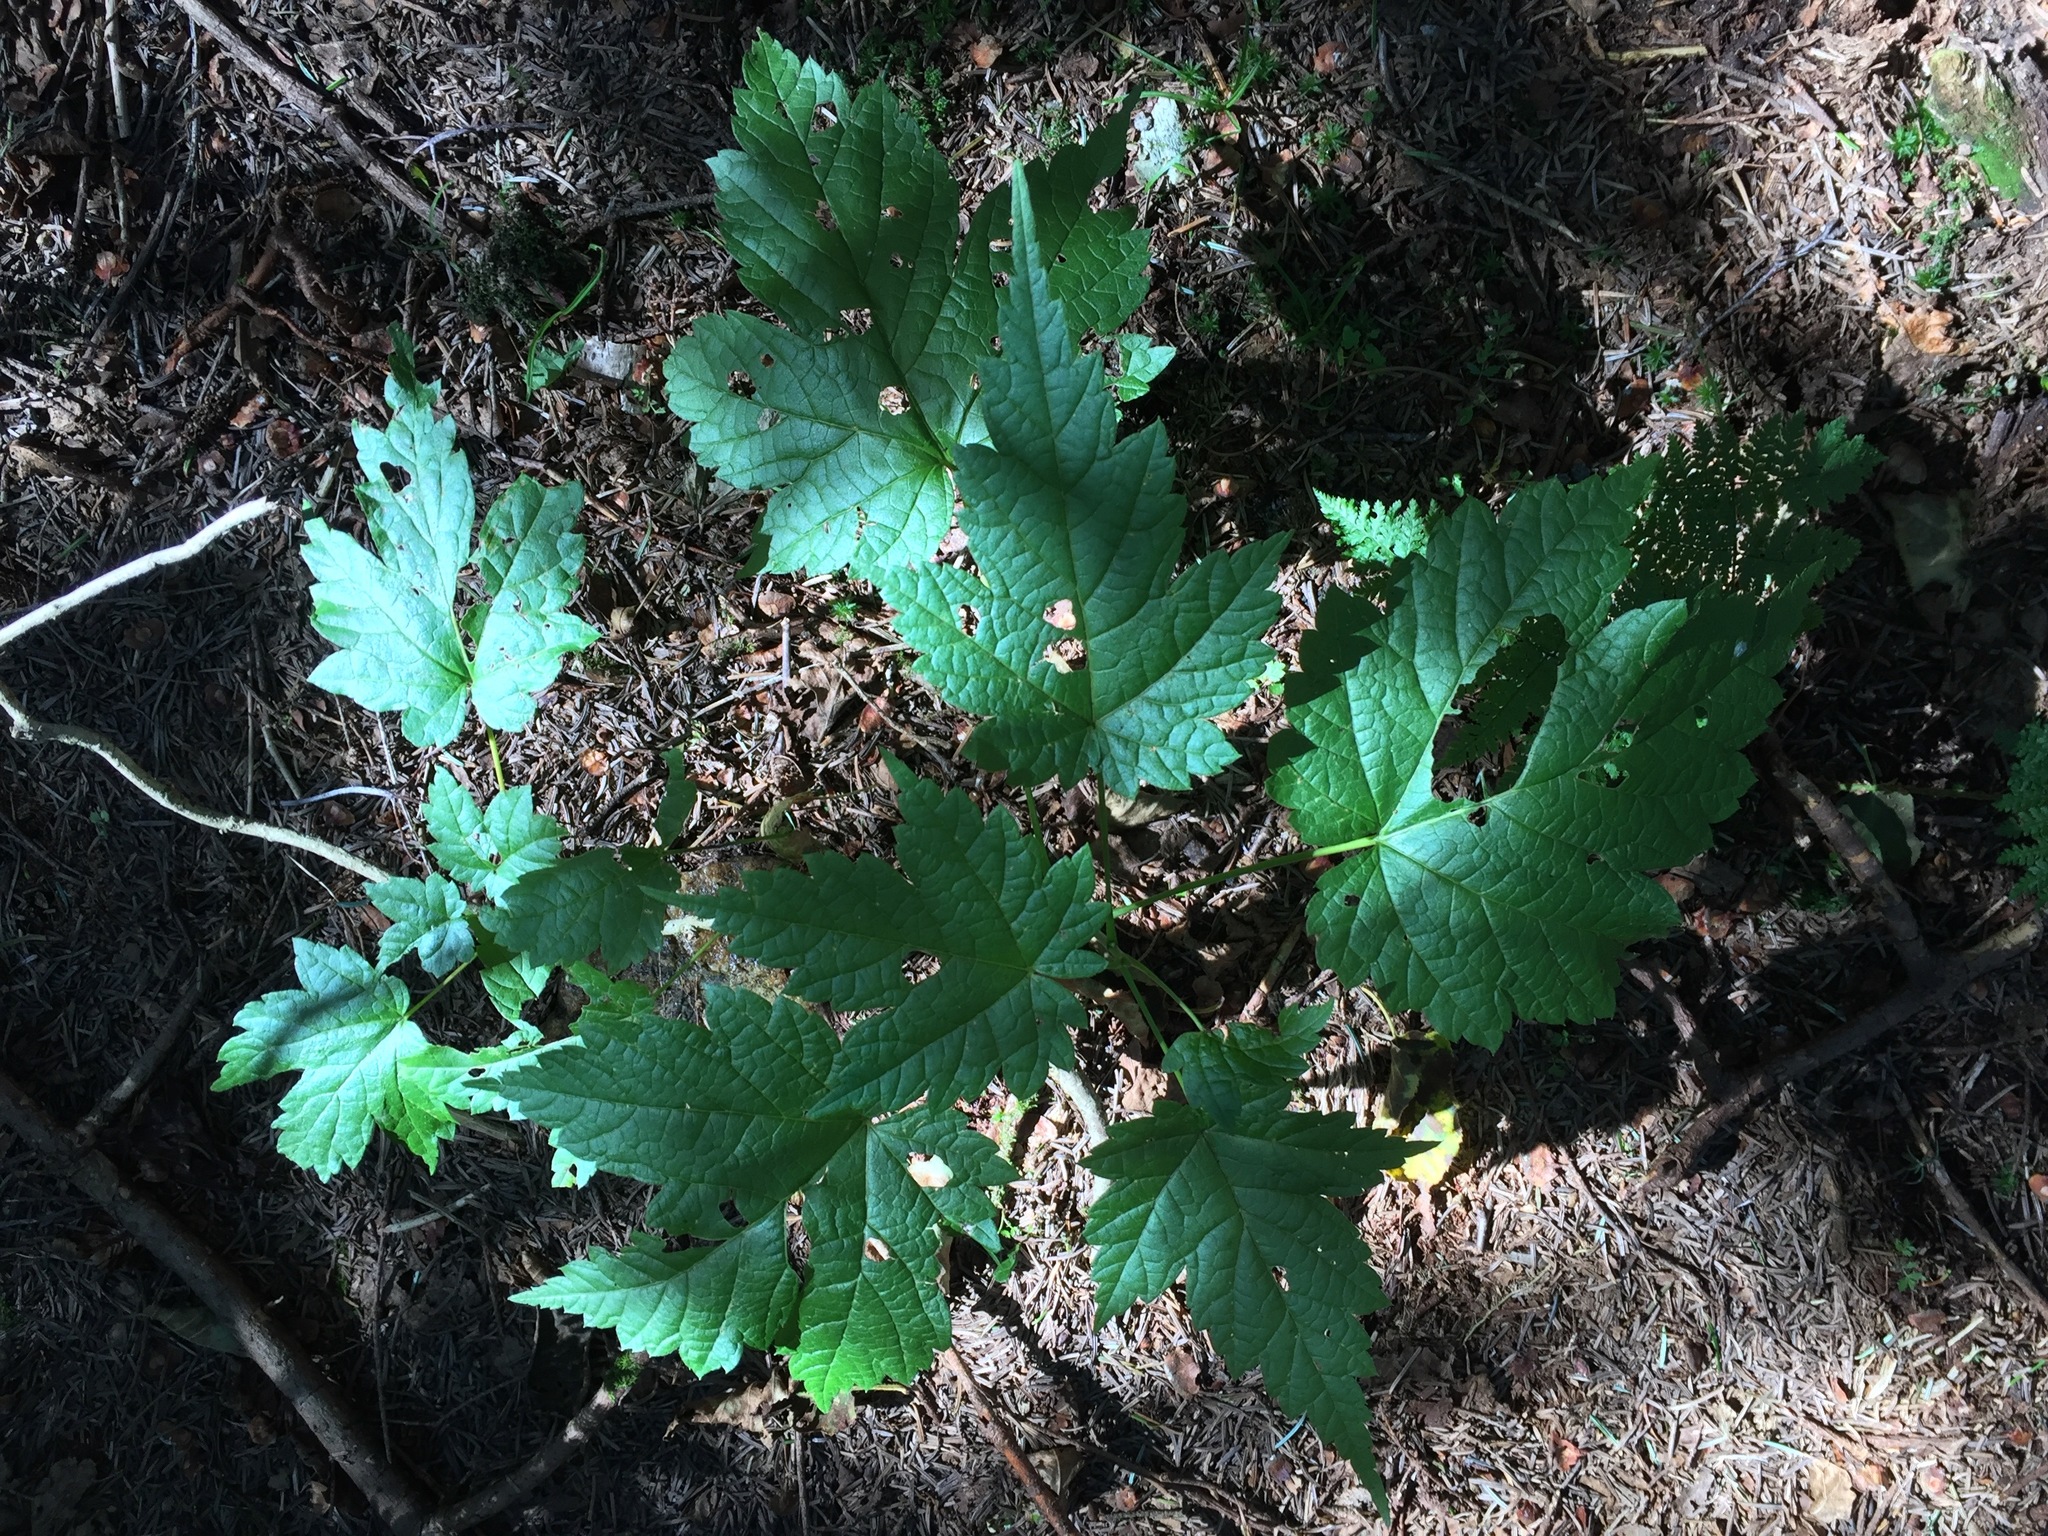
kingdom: Plantae
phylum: Tracheophyta
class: Magnoliopsida
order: Sapindales
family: Sapindaceae
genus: Acer
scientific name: Acer spicatum
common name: Mountain maple
